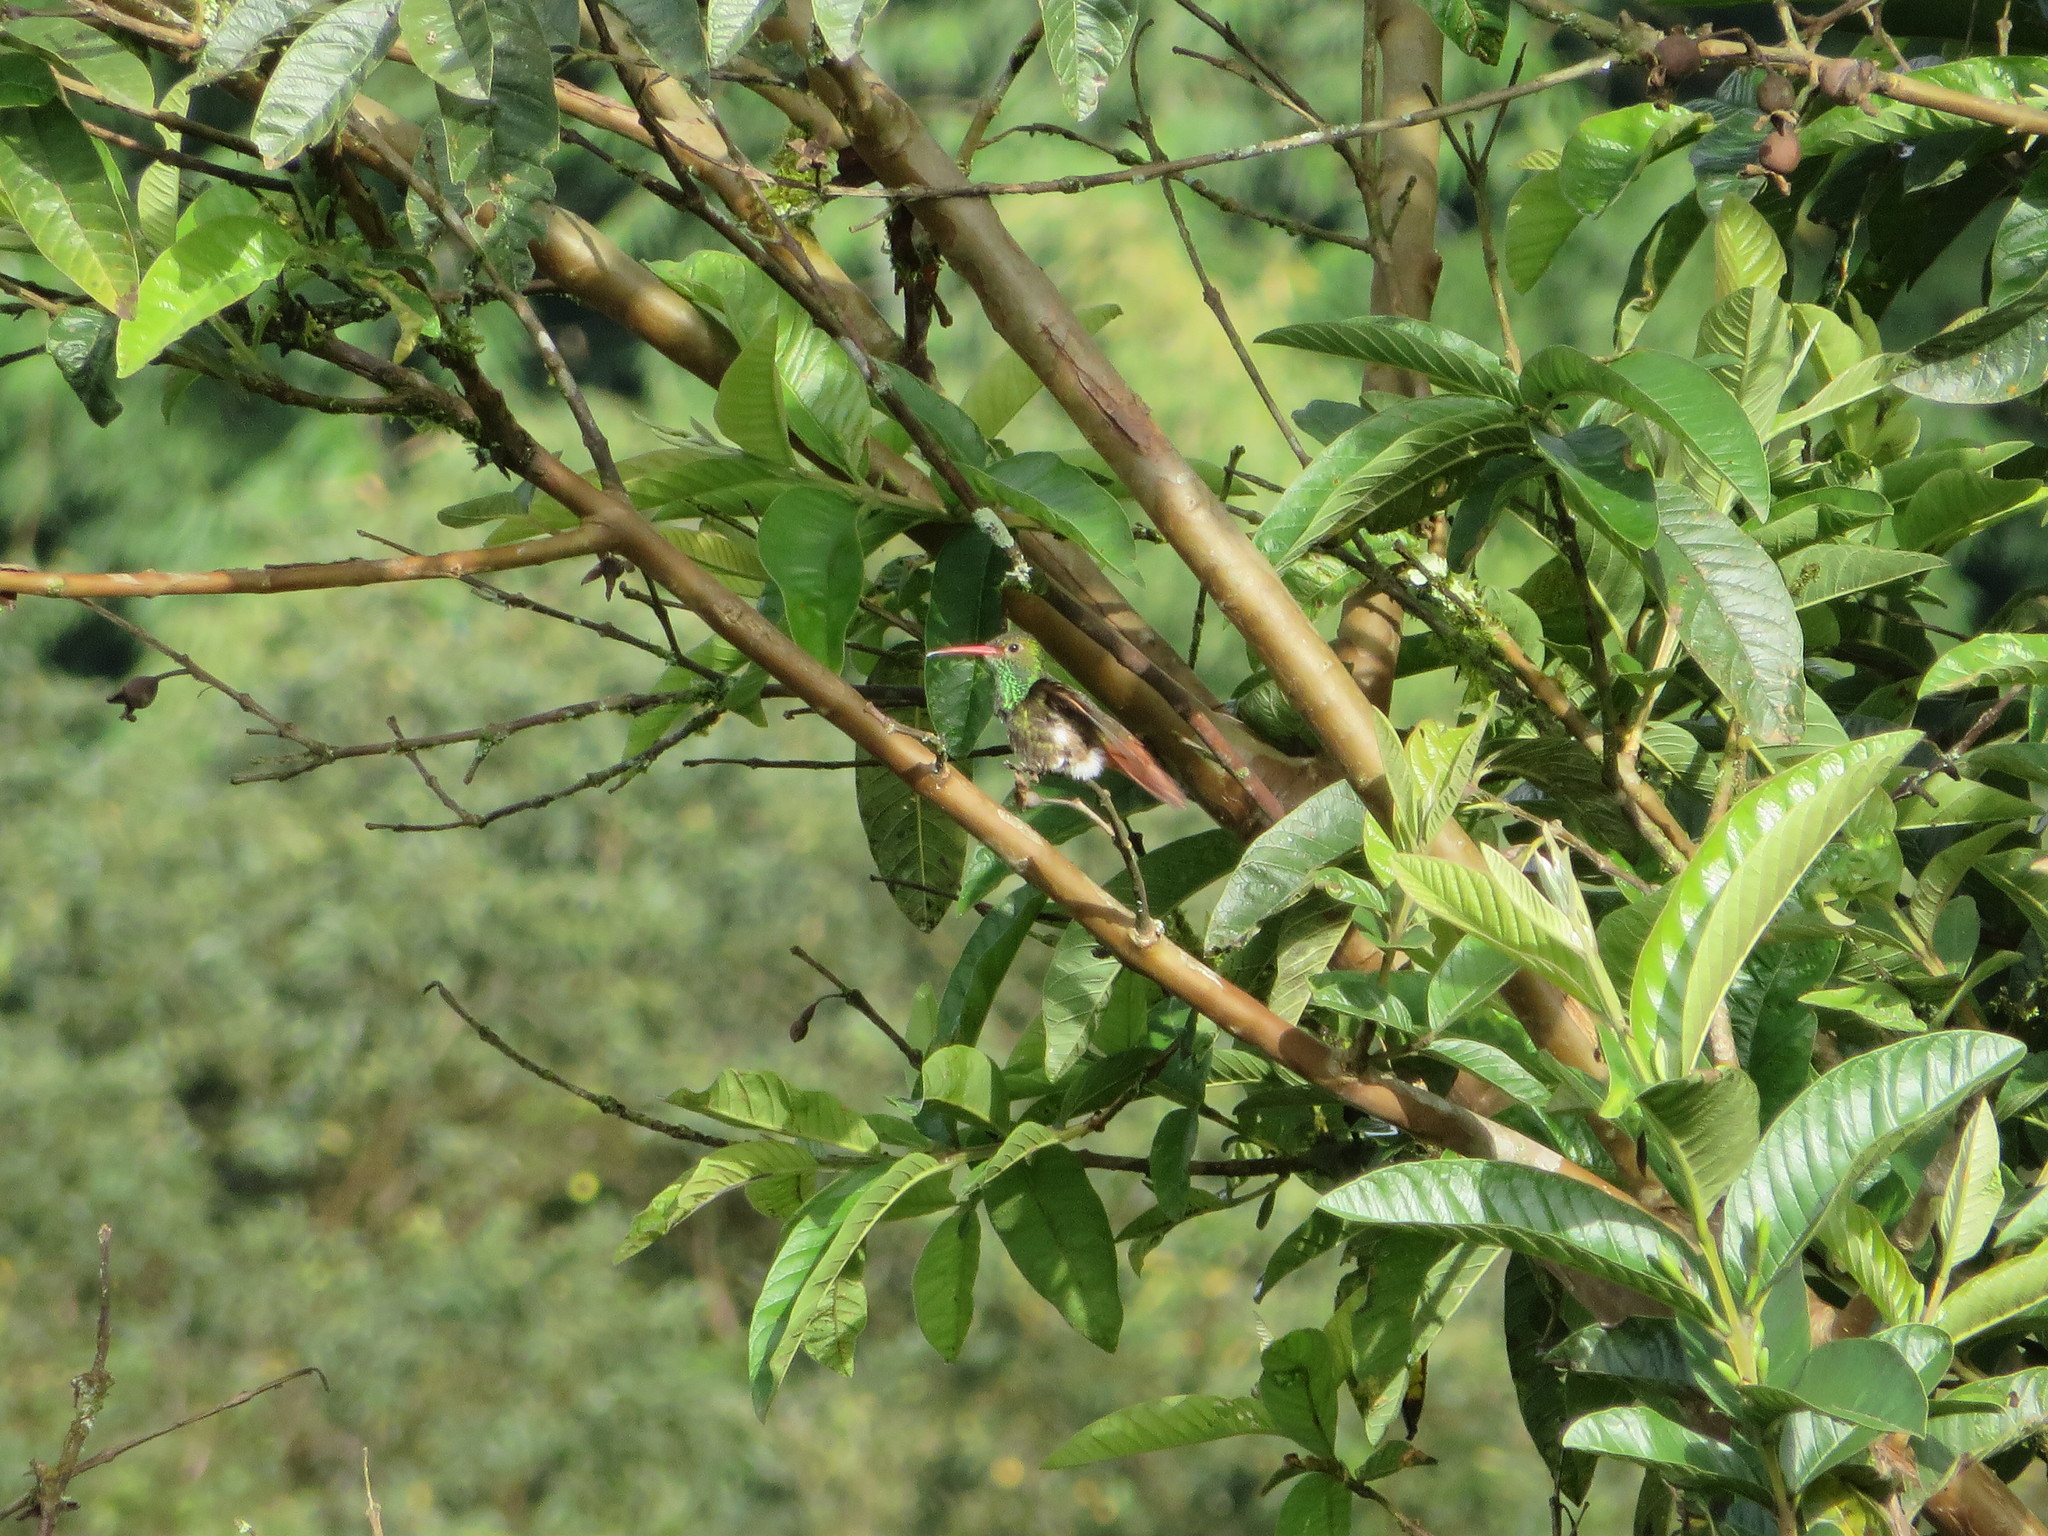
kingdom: Animalia
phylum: Chordata
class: Aves
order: Apodiformes
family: Trochilidae
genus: Amazilia
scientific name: Amazilia tzacatl
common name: Rufous-tailed hummingbird
